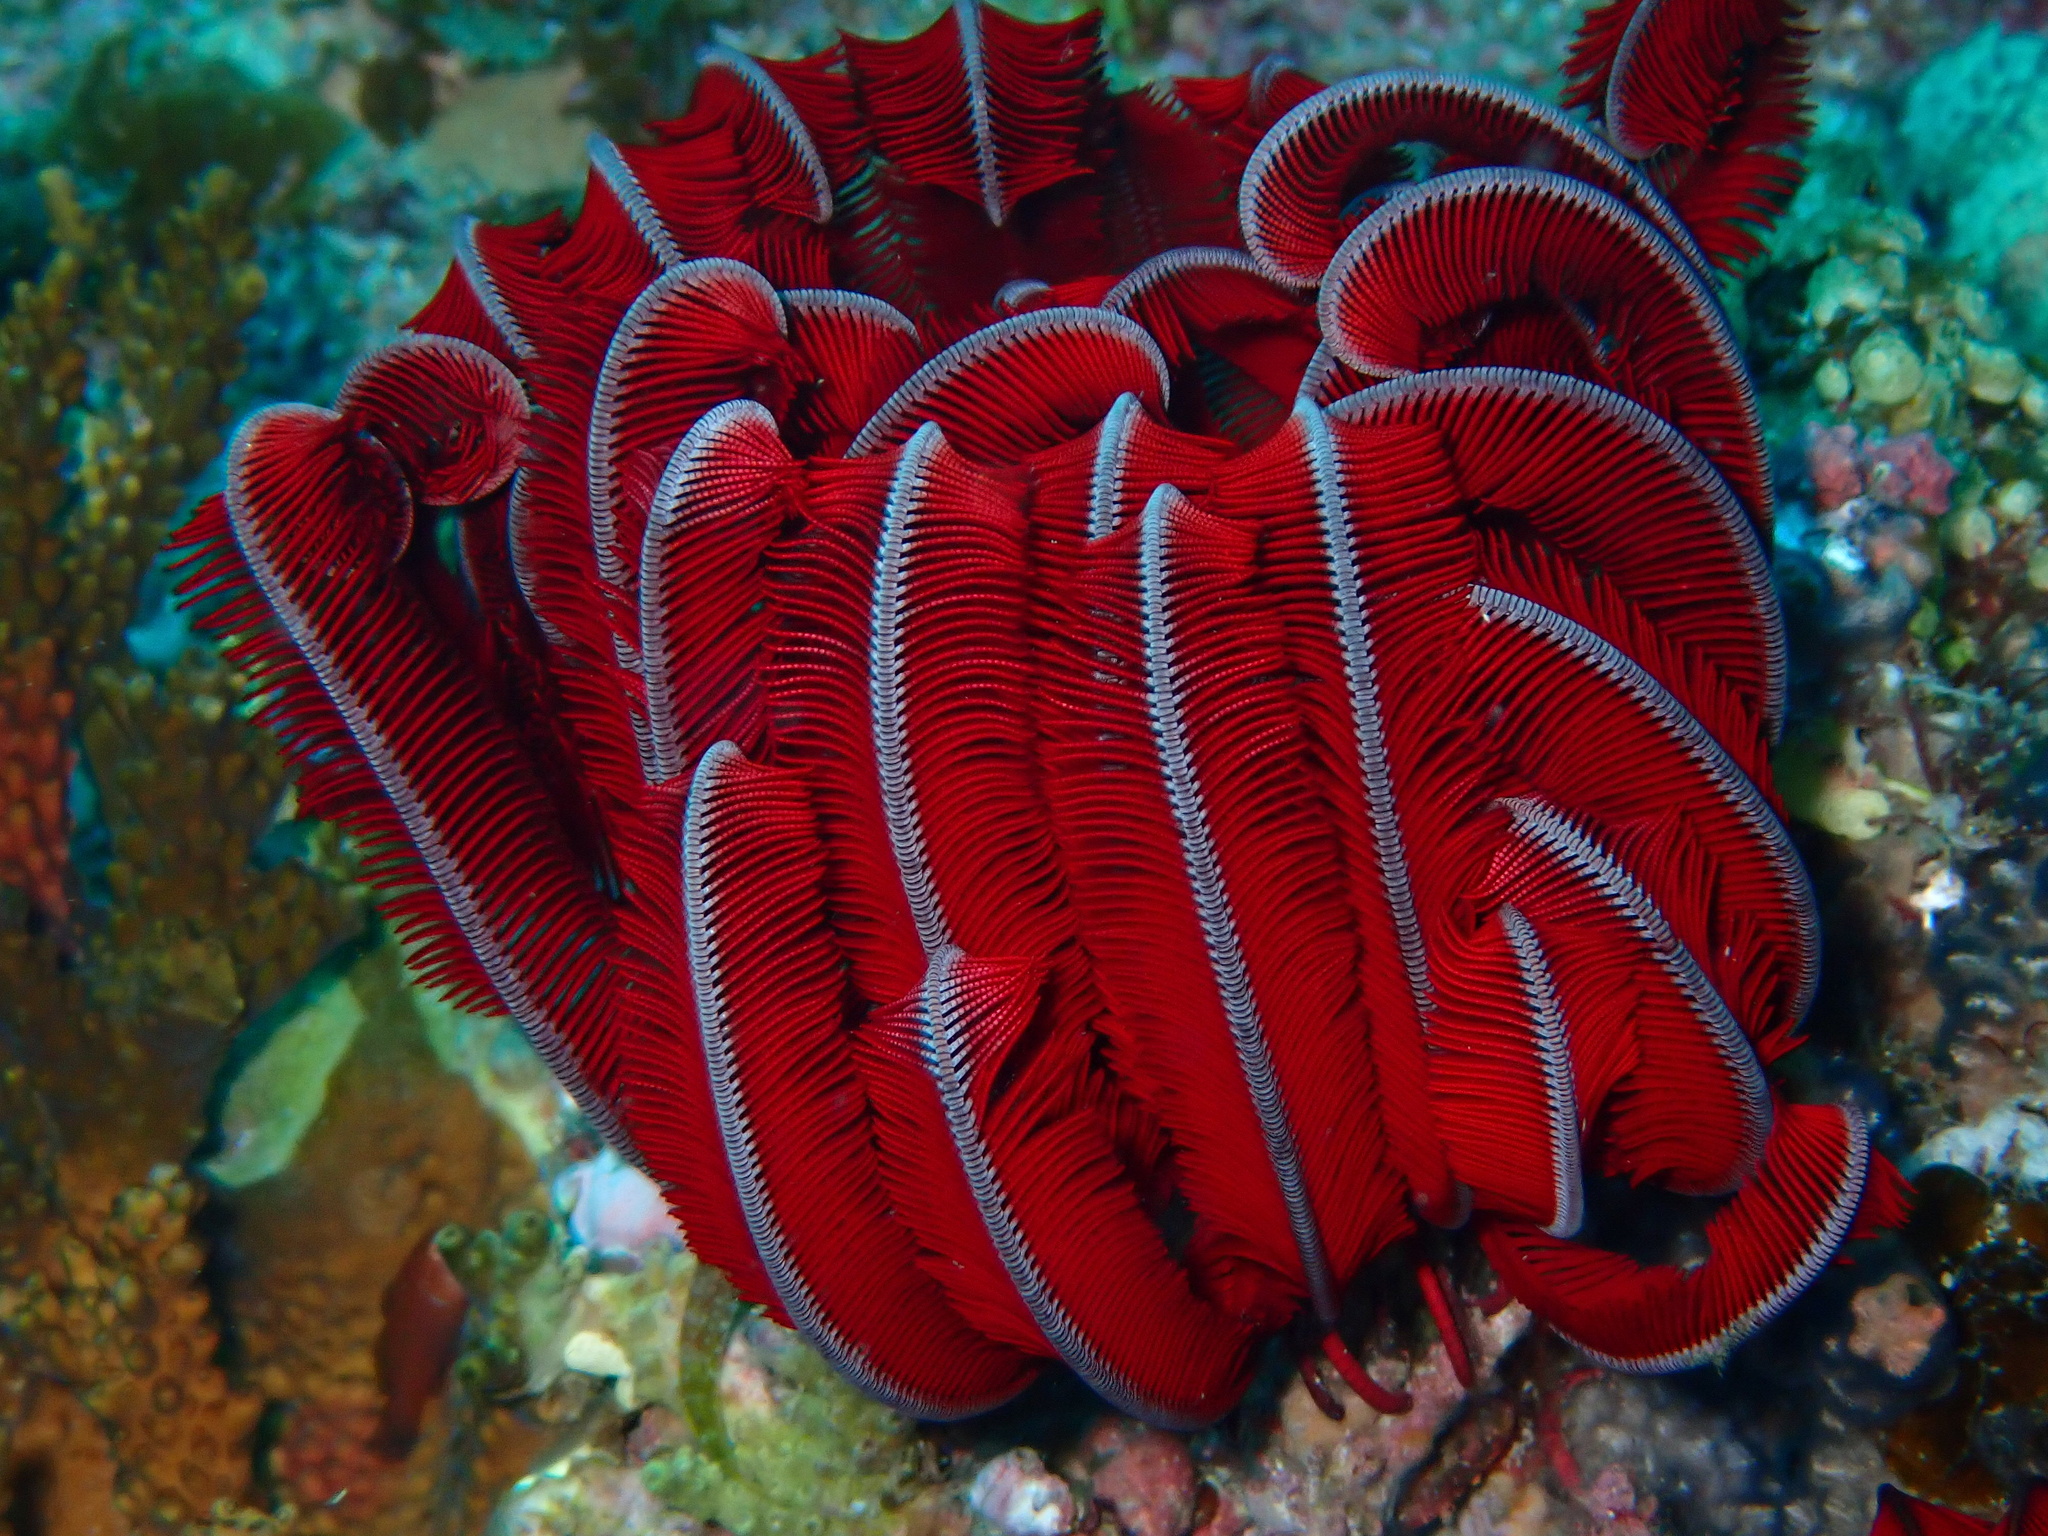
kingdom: Animalia
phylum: Echinodermata
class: Crinoidea
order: Comatulida
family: Himerometridae
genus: Himerometra
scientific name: Himerometra robustipinna
